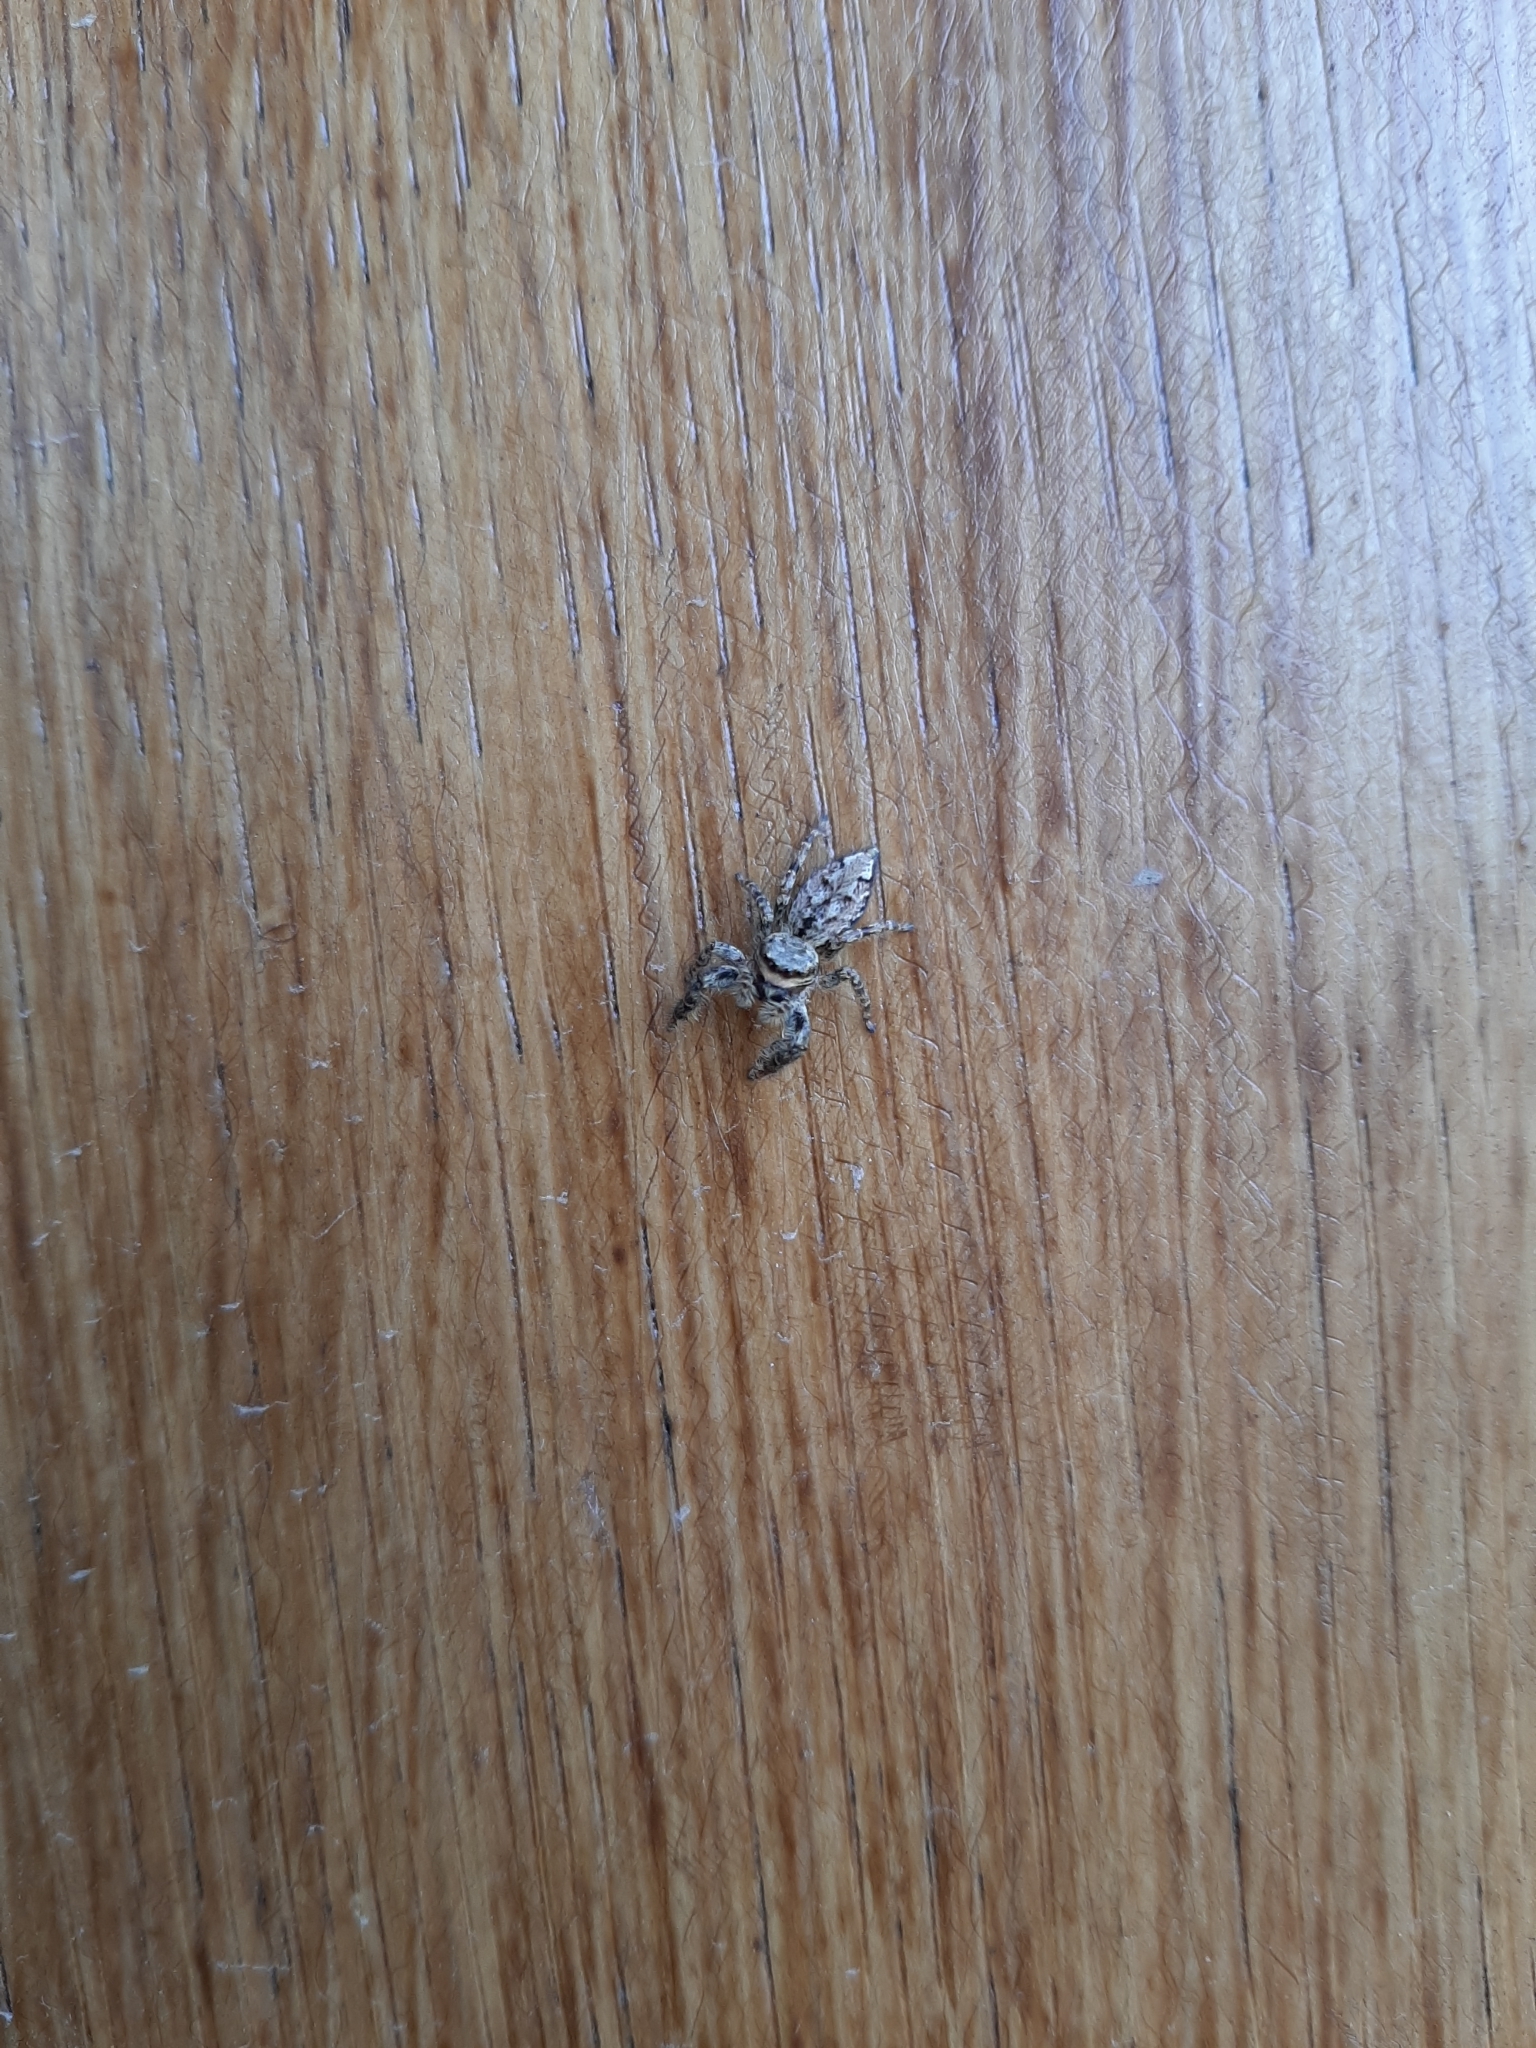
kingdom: Animalia
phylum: Arthropoda
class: Arachnida
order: Araneae
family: Salticidae
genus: Marpissa
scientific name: Marpissa muscosa
